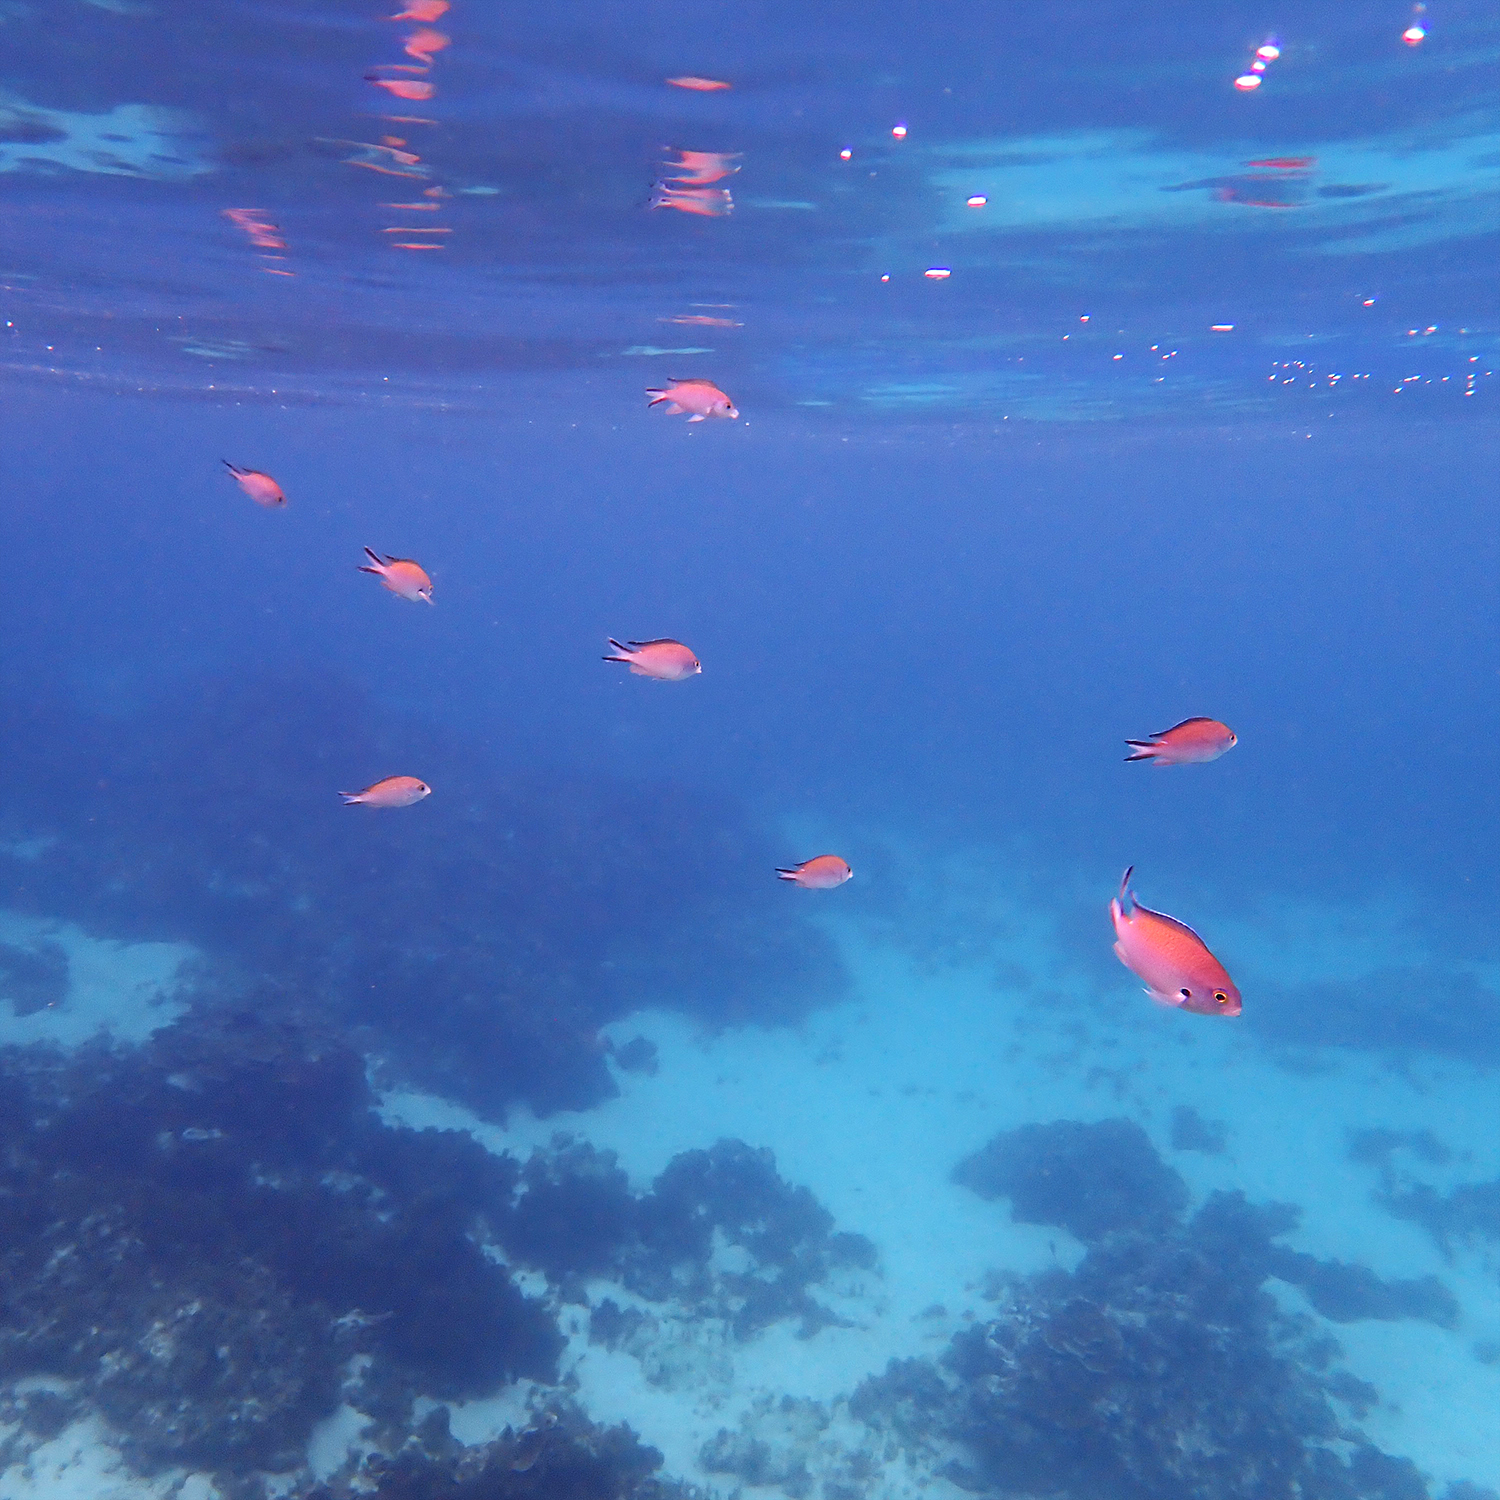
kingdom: Animalia
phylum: Chordata
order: Perciformes
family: Pomacentridae
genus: Chromis
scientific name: Chromis norfolkensis
